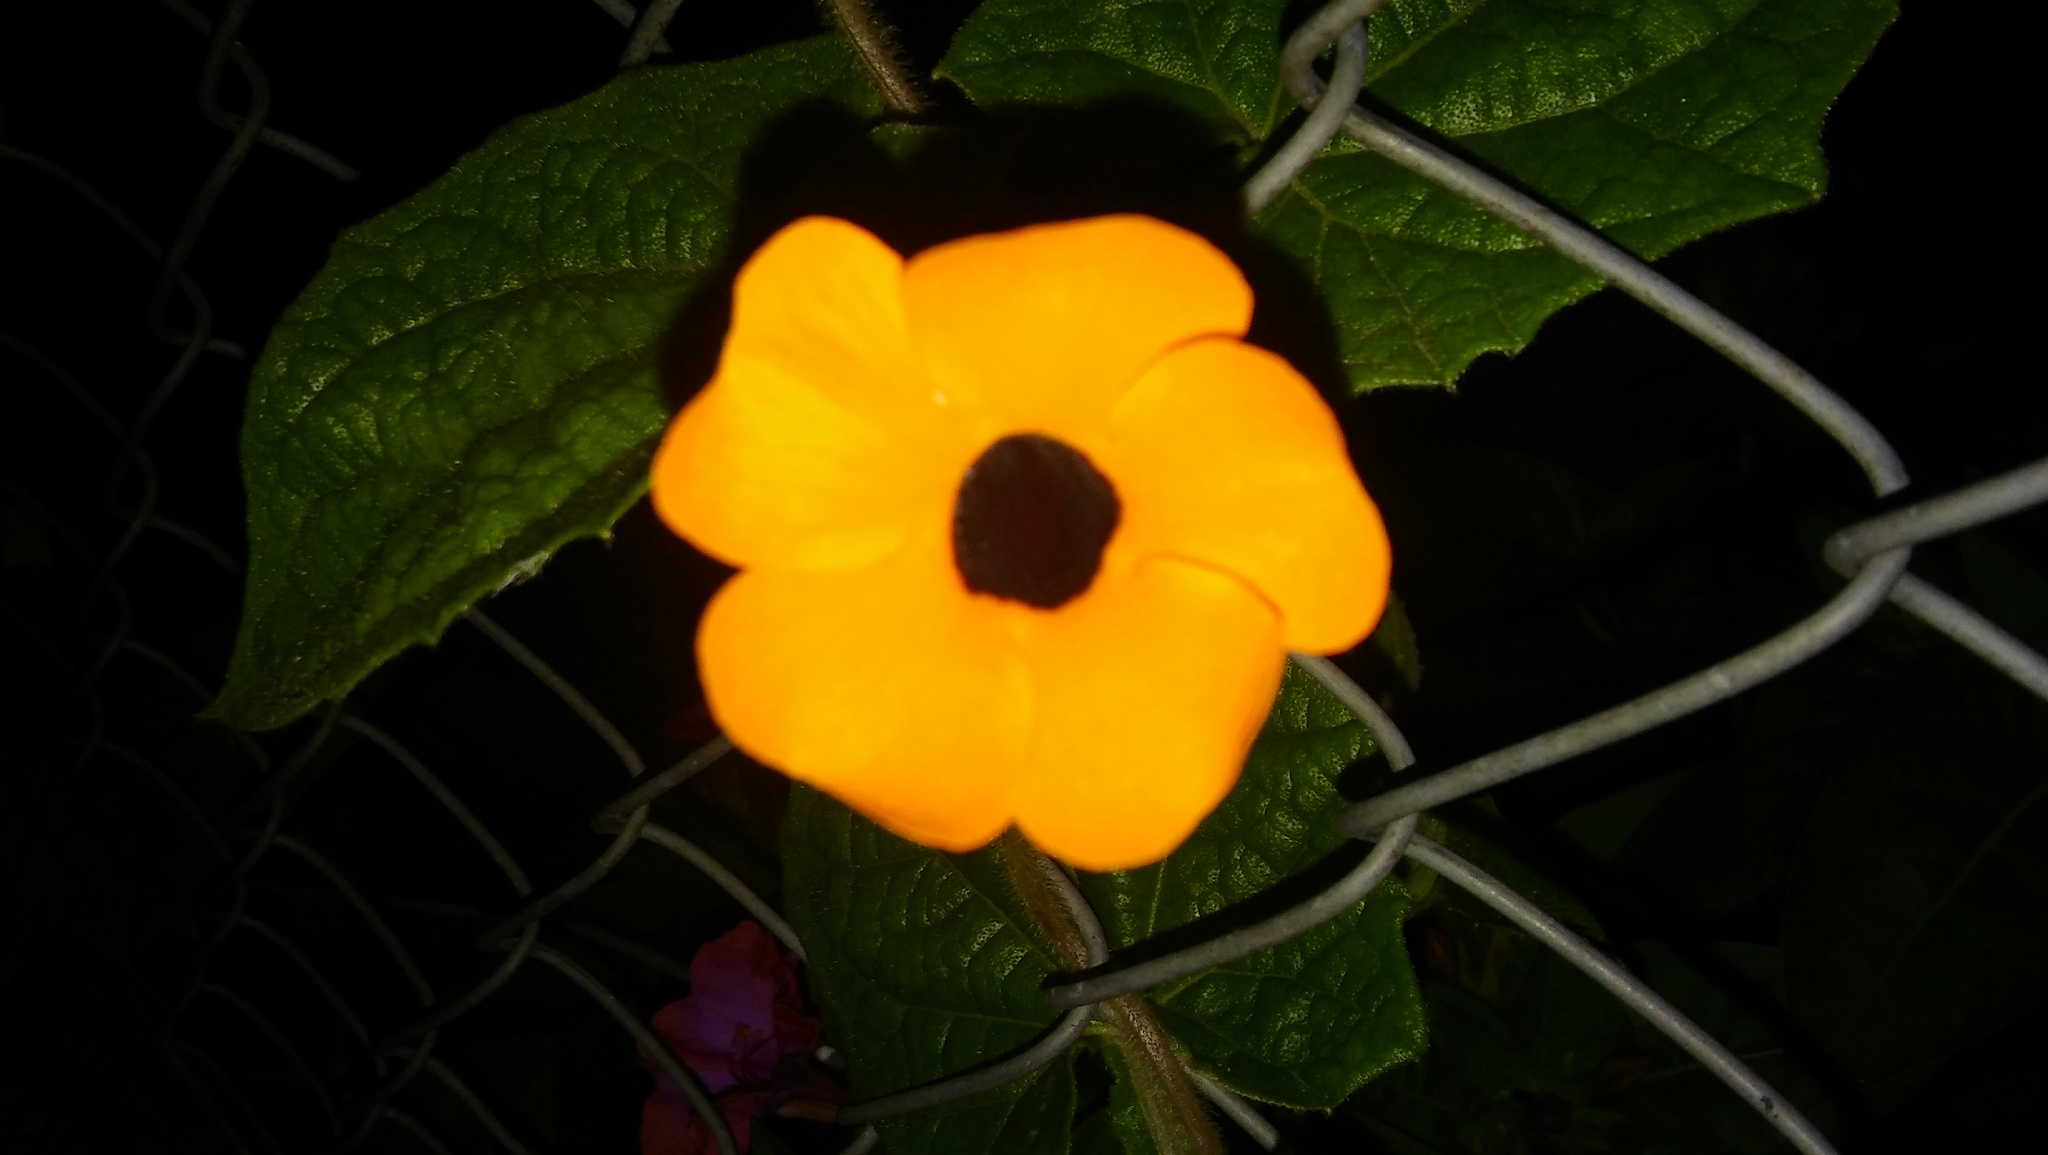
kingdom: Plantae
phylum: Tracheophyta
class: Magnoliopsida
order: Lamiales
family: Acanthaceae
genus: Thunbergia
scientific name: Thunbergia alata
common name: Blackeyed susan vine
